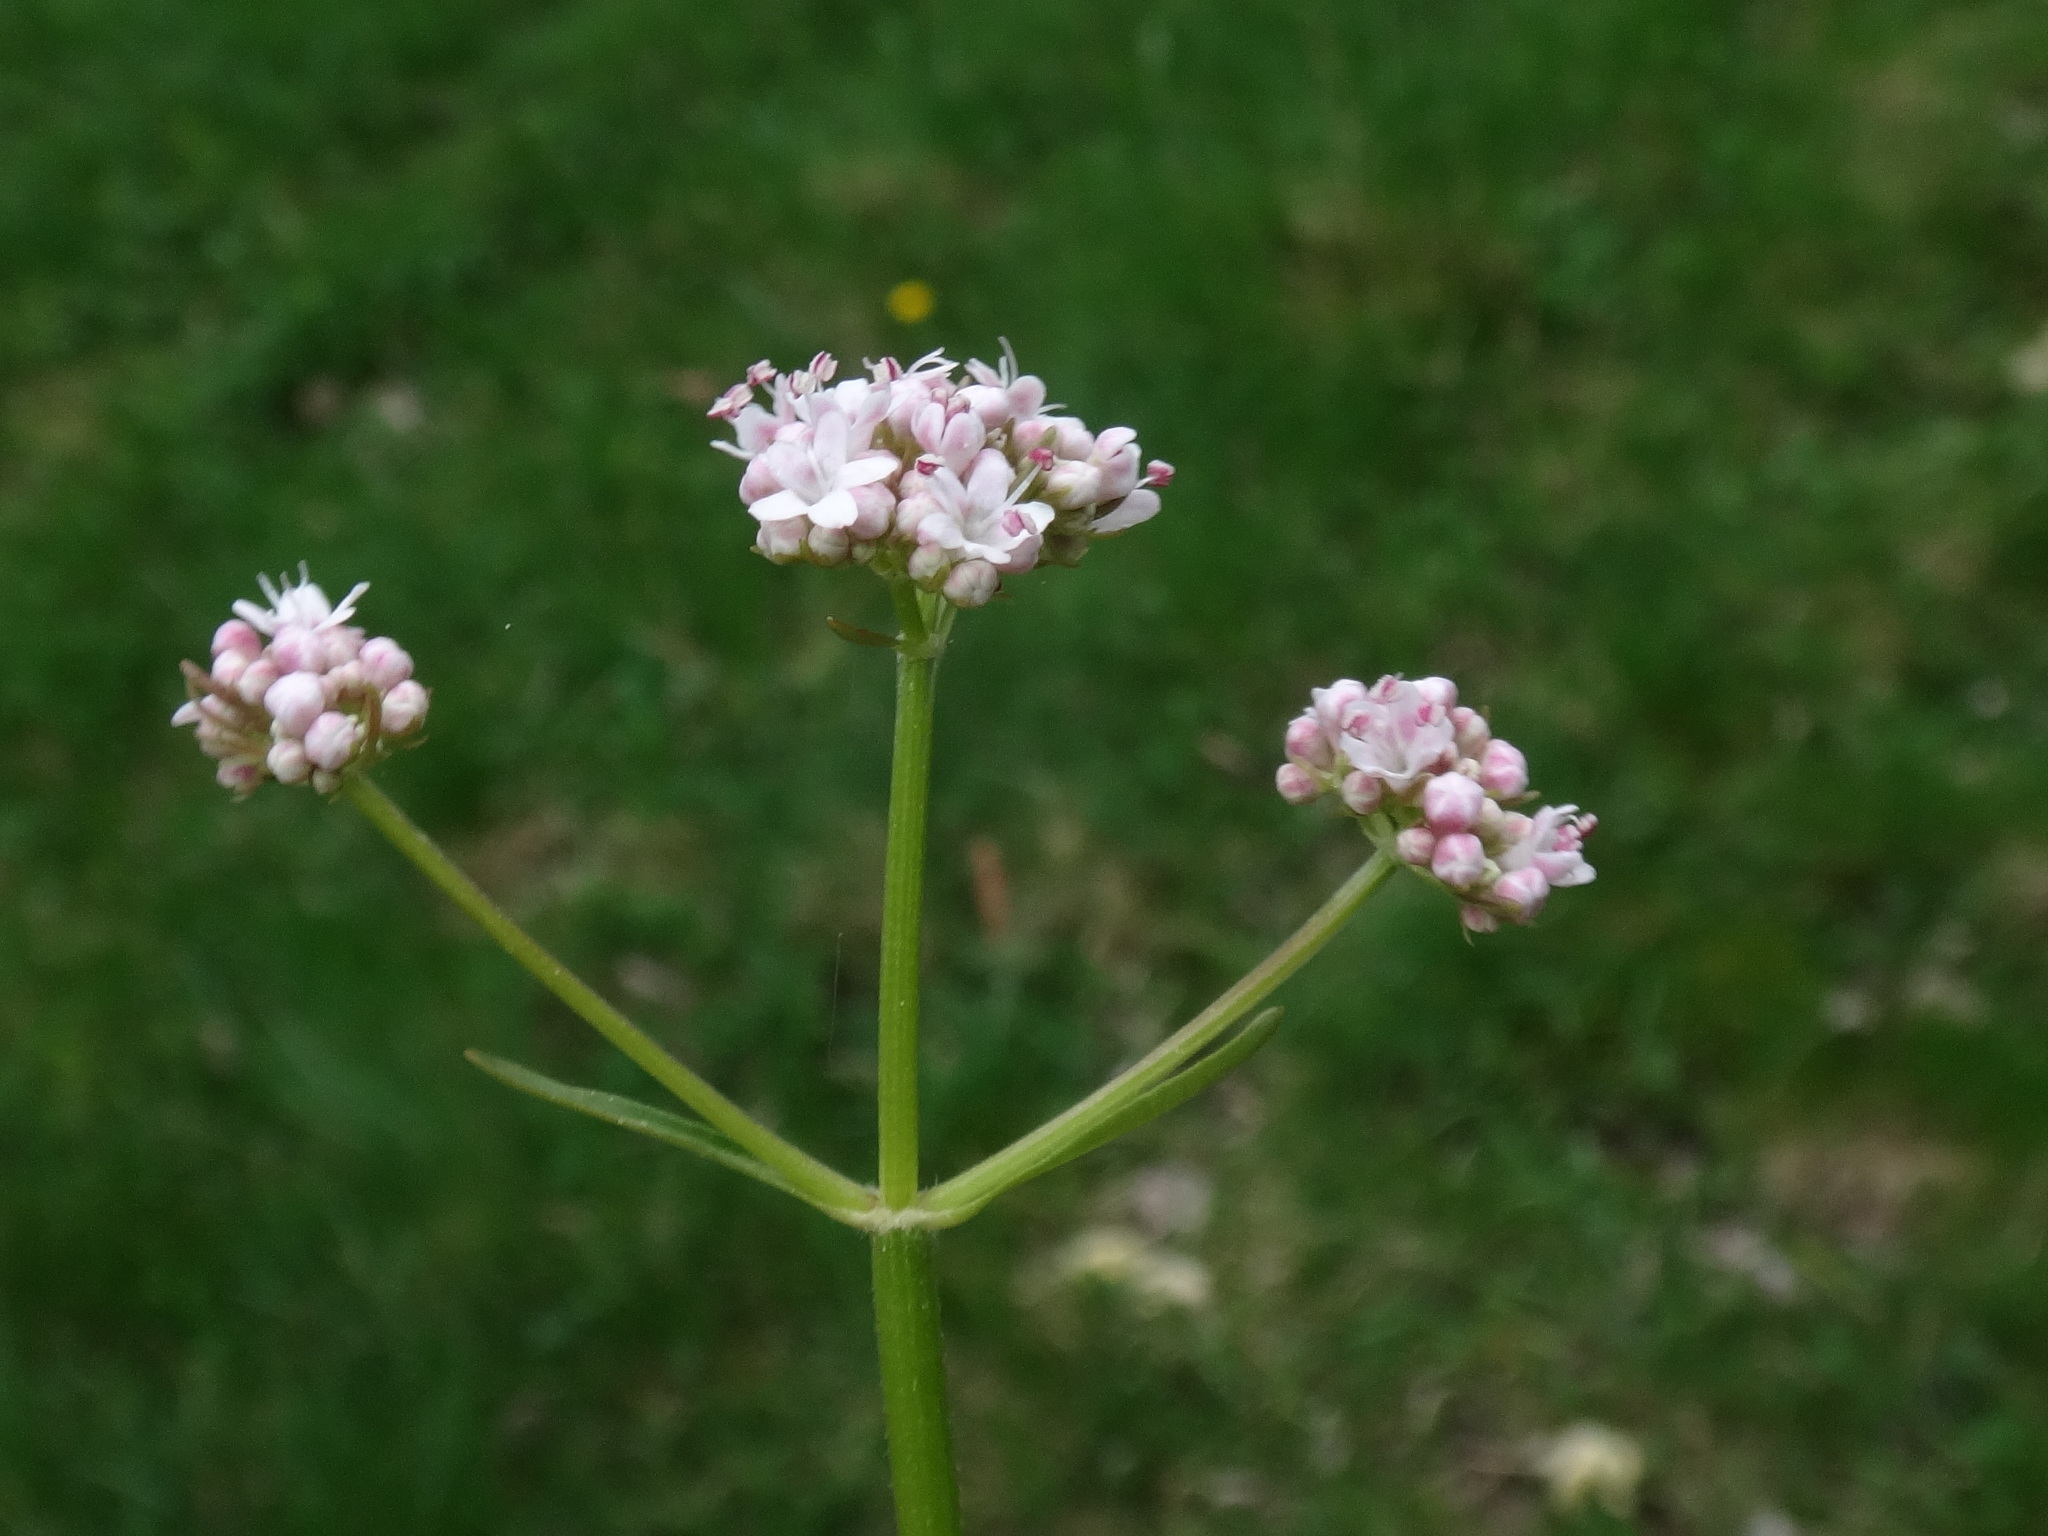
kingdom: Plantae
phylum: Tracheophyta
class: Magnoliopsida
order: Dipsacales
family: Caprifoliaceae
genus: Valeriana
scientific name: Valeriana dioica
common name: Marsh valerian
